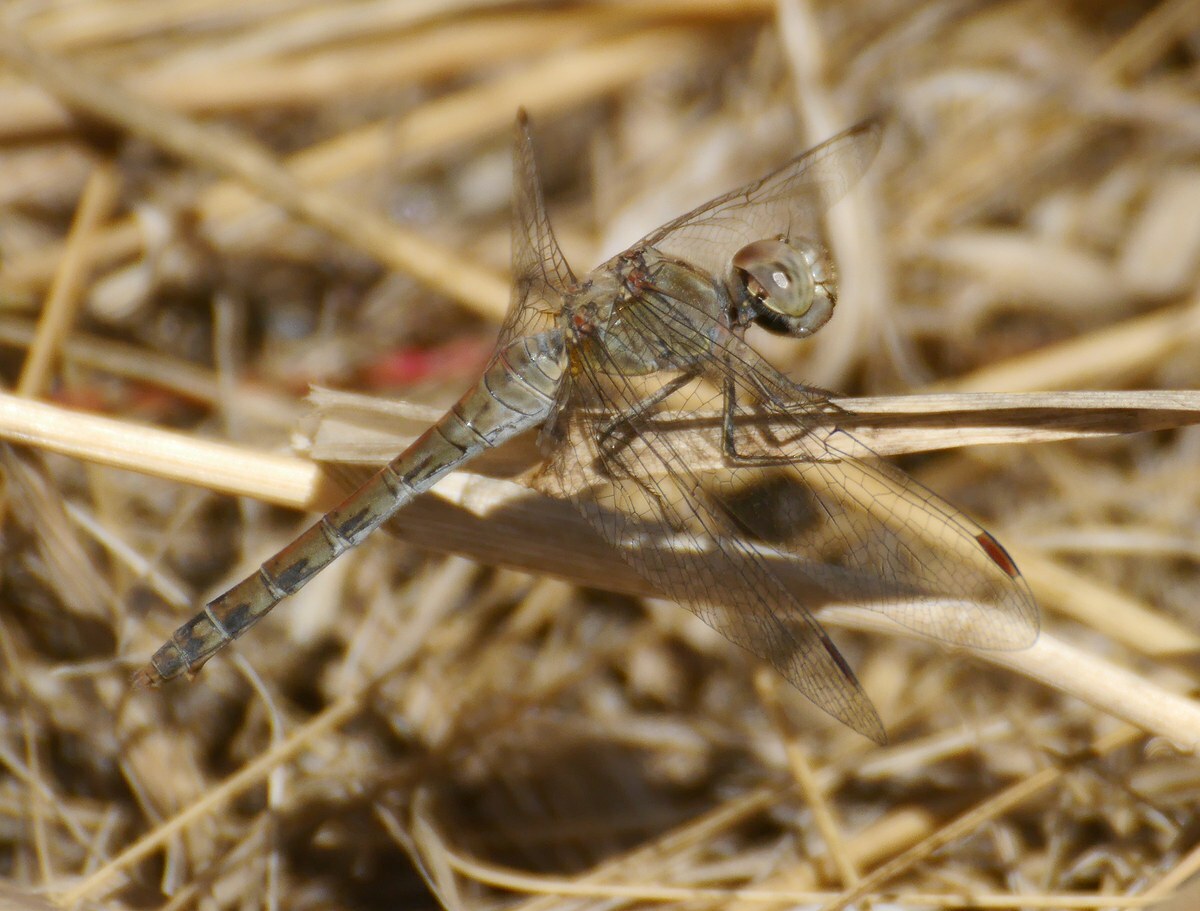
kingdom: Animalia
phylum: Arthropoda
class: Insecta
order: Odonata
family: Libellulidae
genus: Sympetrum
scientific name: Sympetrum striolatum
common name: Common darter
